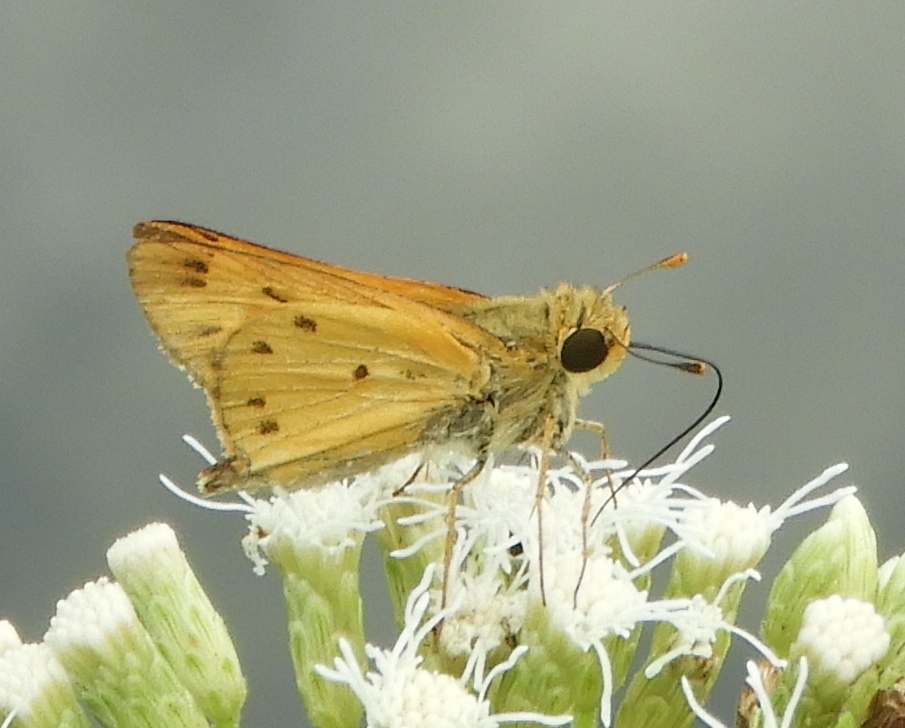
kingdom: Animalia
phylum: Arthropoda
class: Insecta
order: Lepidoptera
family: Hesperiidae
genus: Hylephila
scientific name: Hylephila phyleus
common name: Fiery skipper
